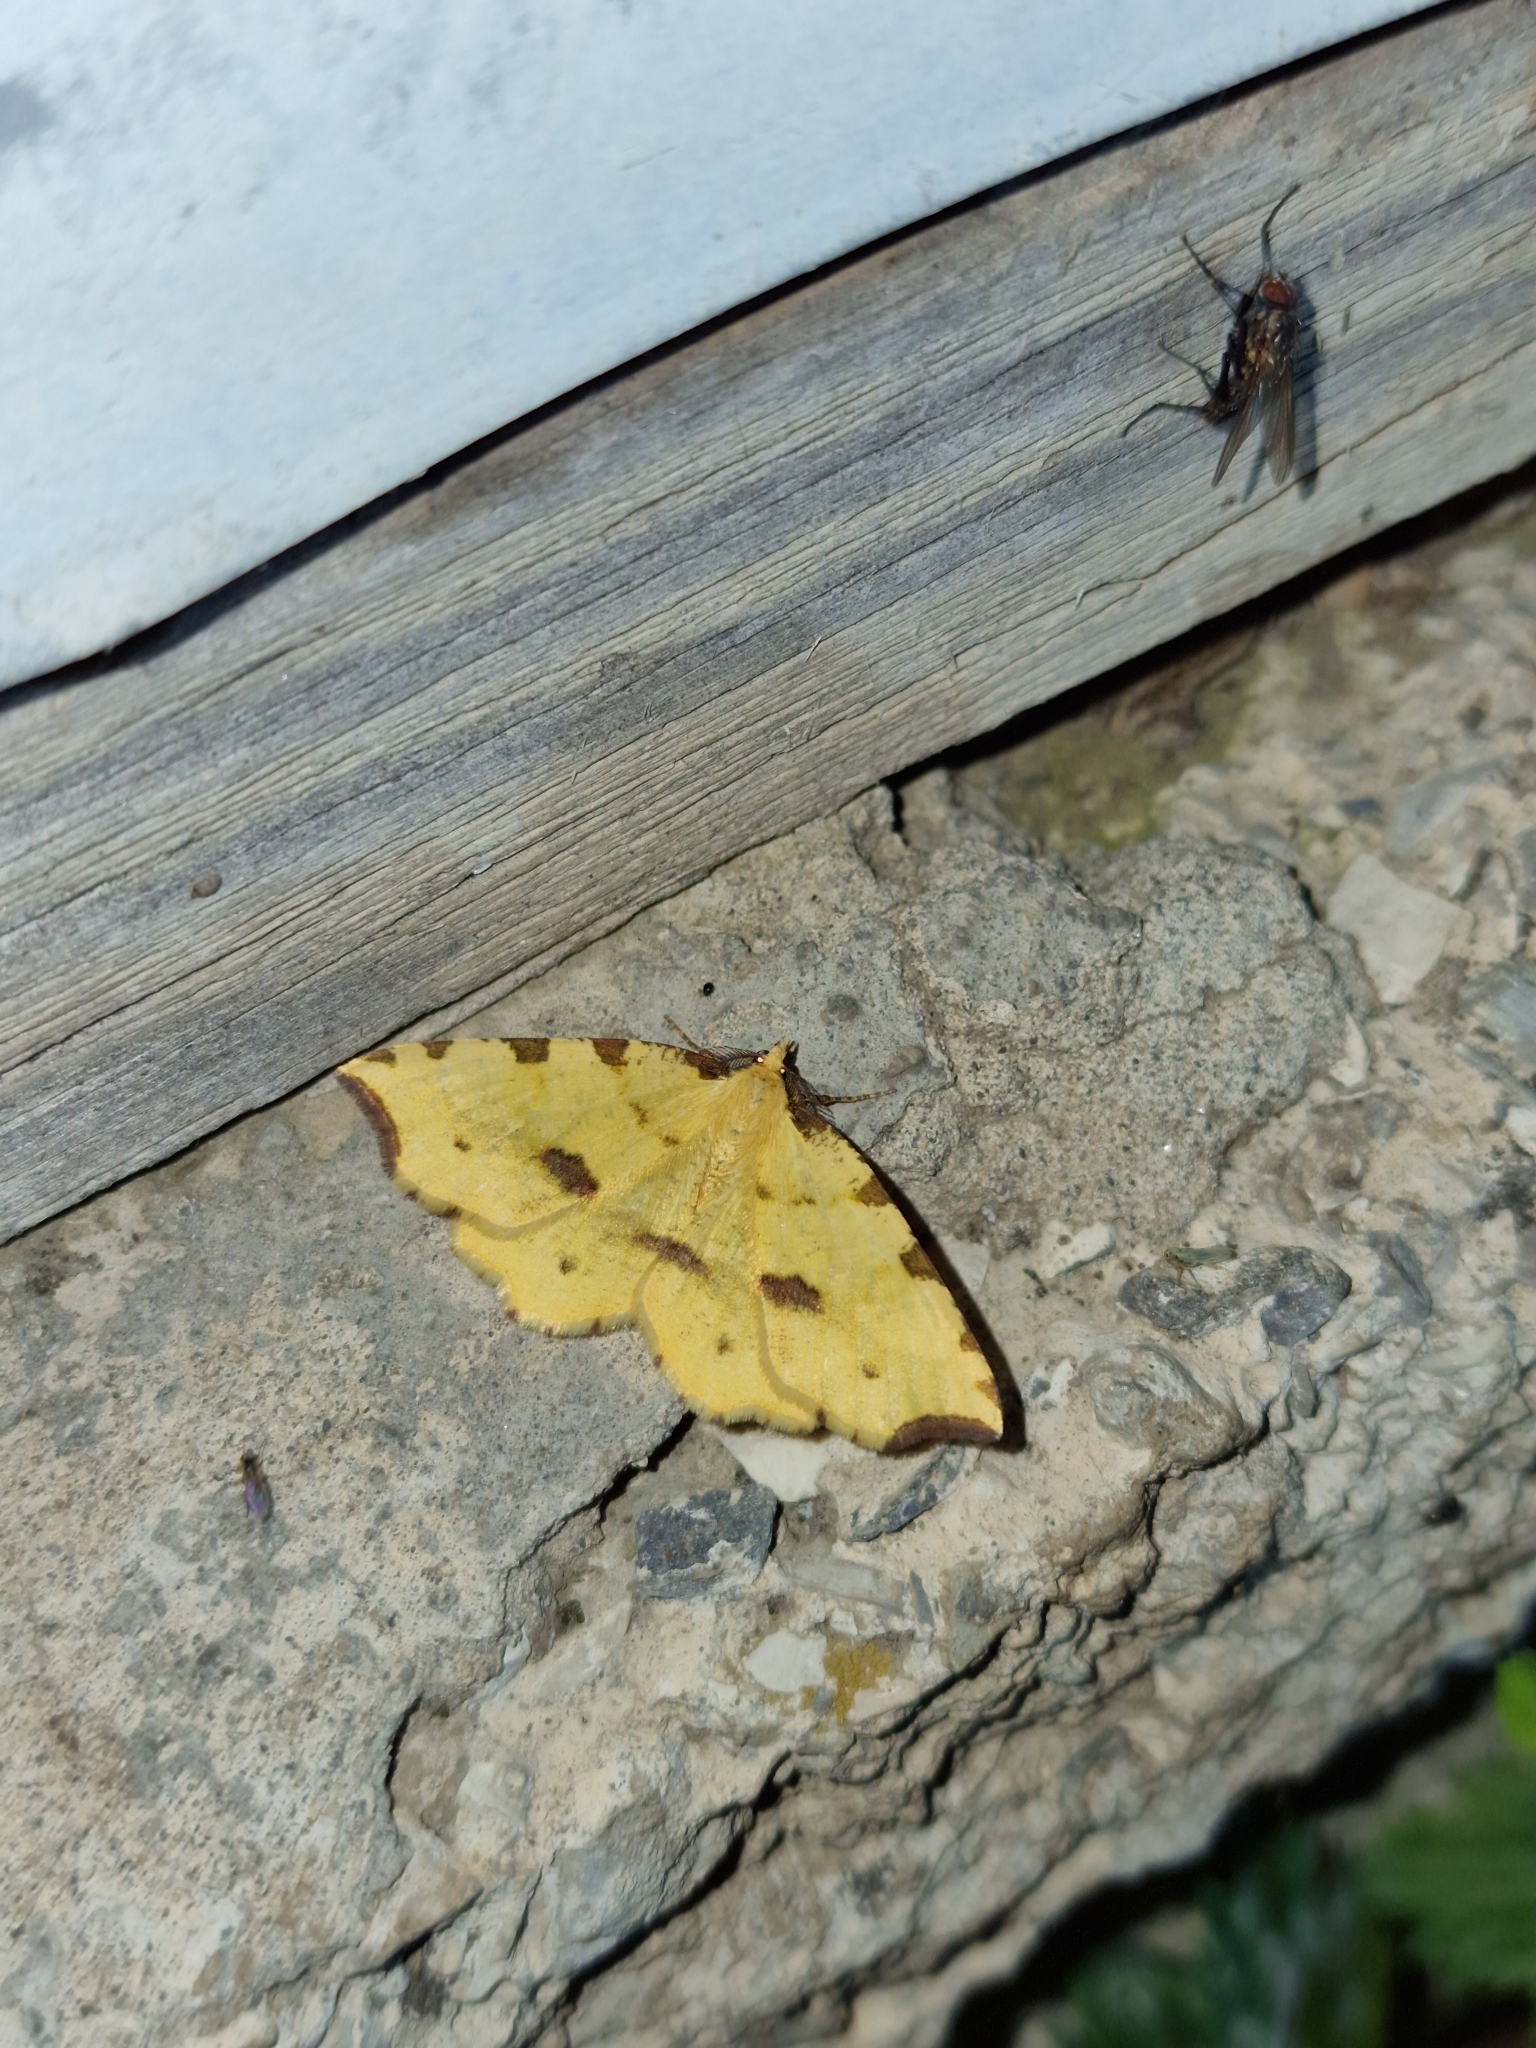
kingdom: Animalia
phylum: Arthropoda
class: Insecta
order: Lepidoptera
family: Geometridae
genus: Therapis
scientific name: Therapis flavicaria
